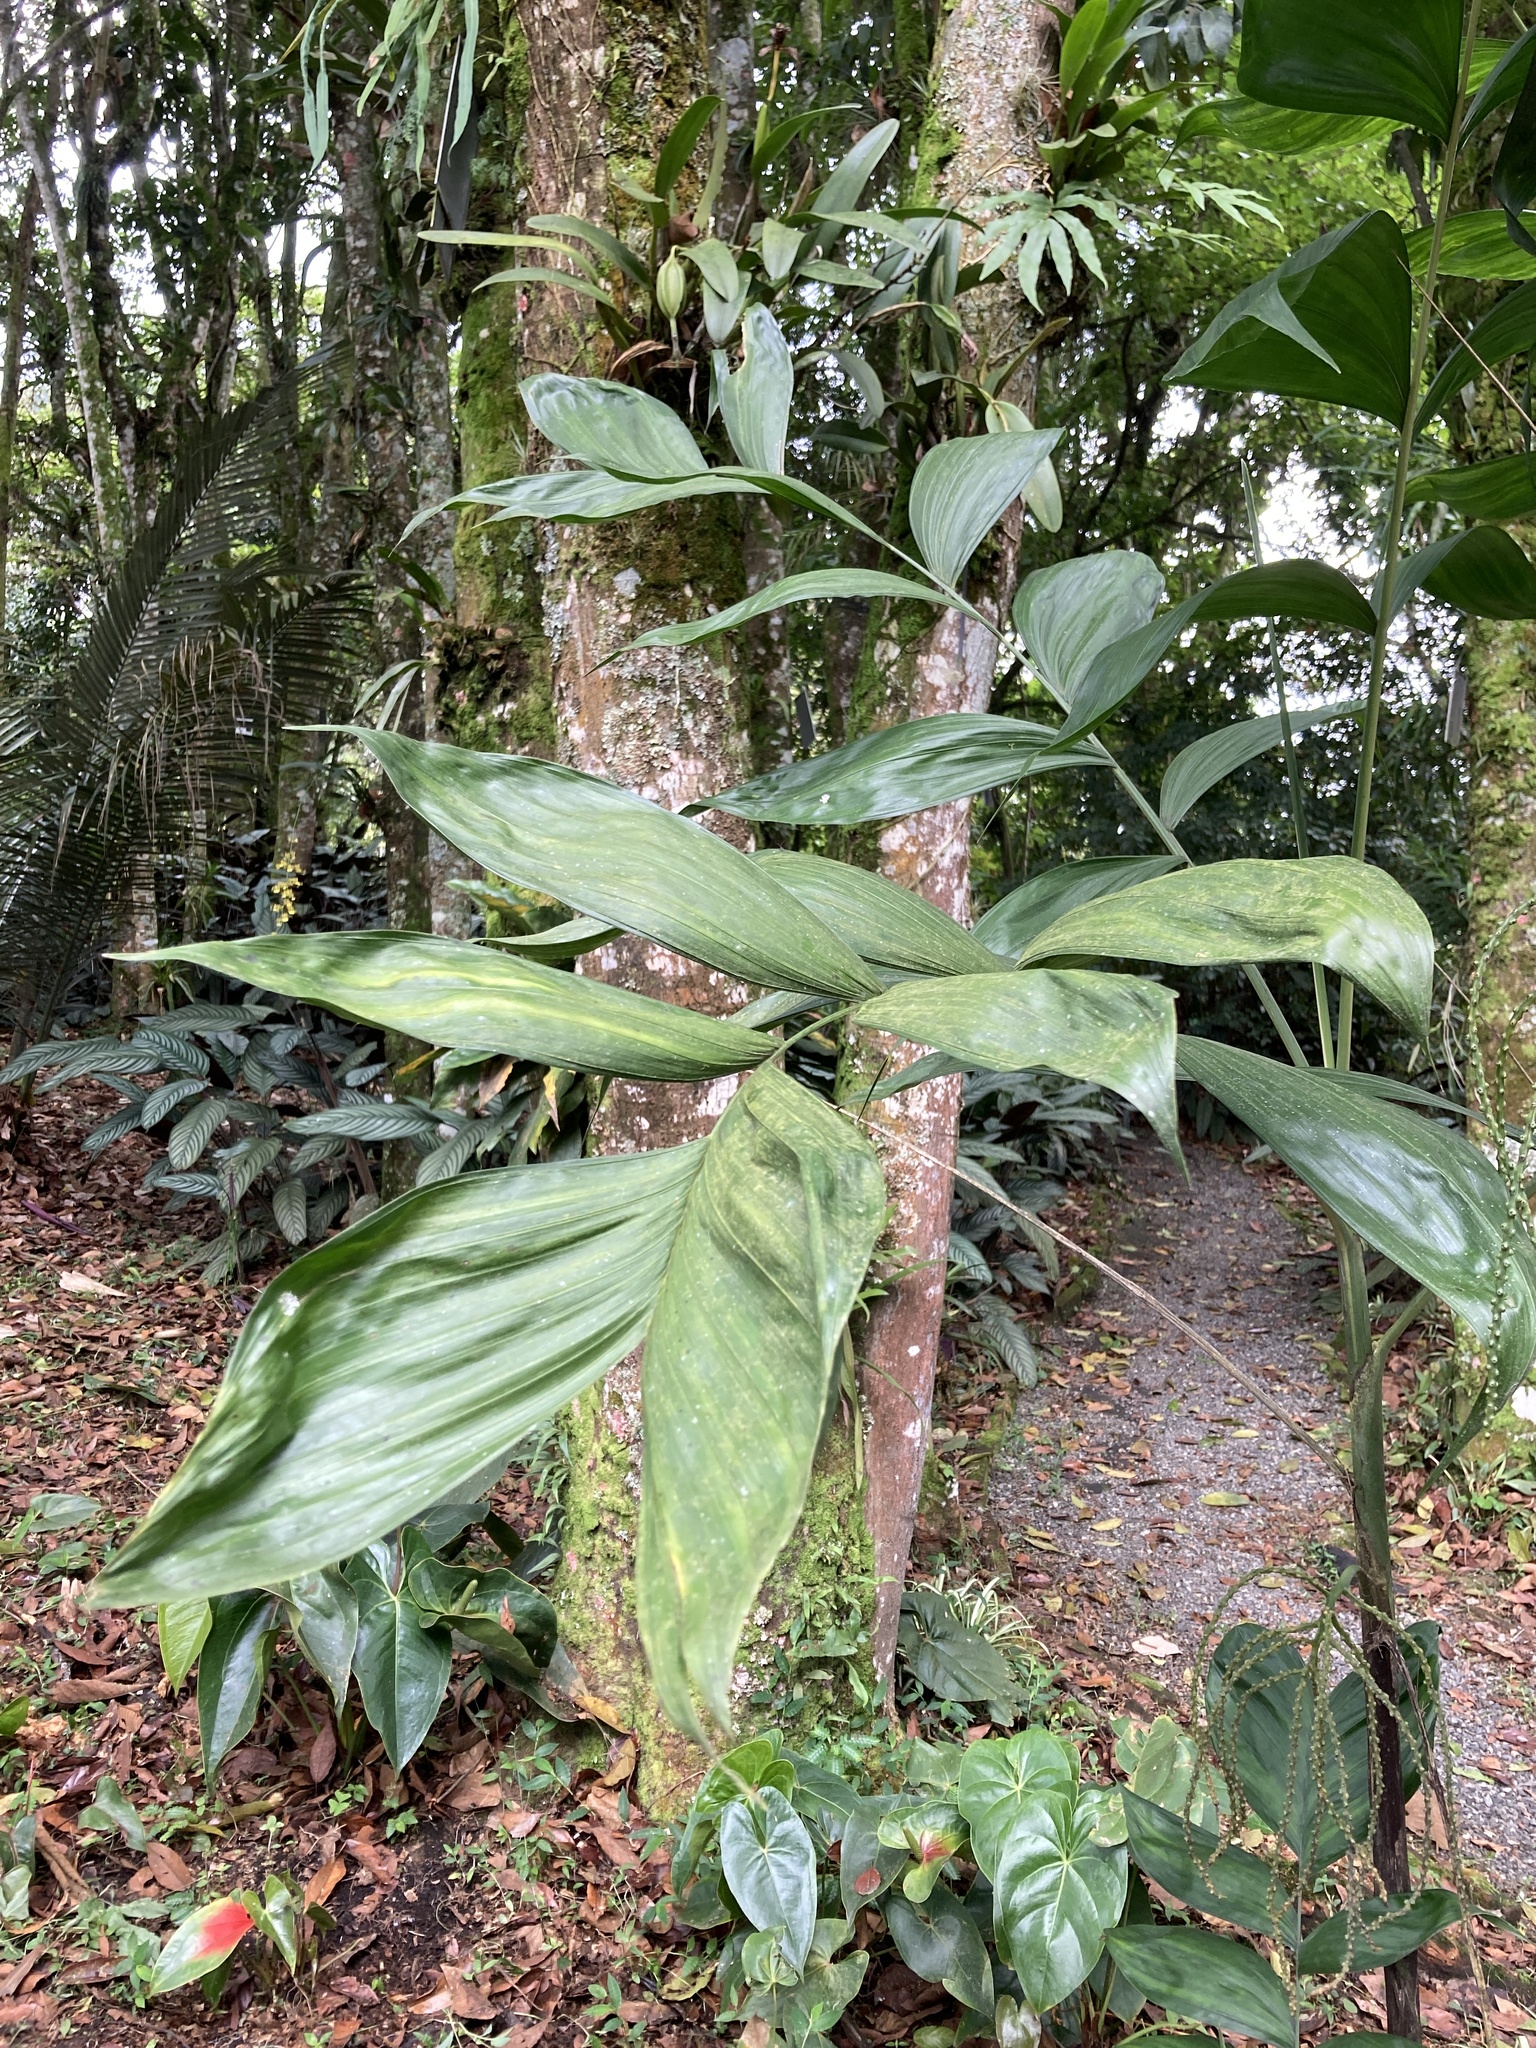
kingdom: Plantae
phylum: Tracheophyta
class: Liliopsida
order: Arecales
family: Arecaceae
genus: Chamaedorea
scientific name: Chamaedorea pinnatifrons
